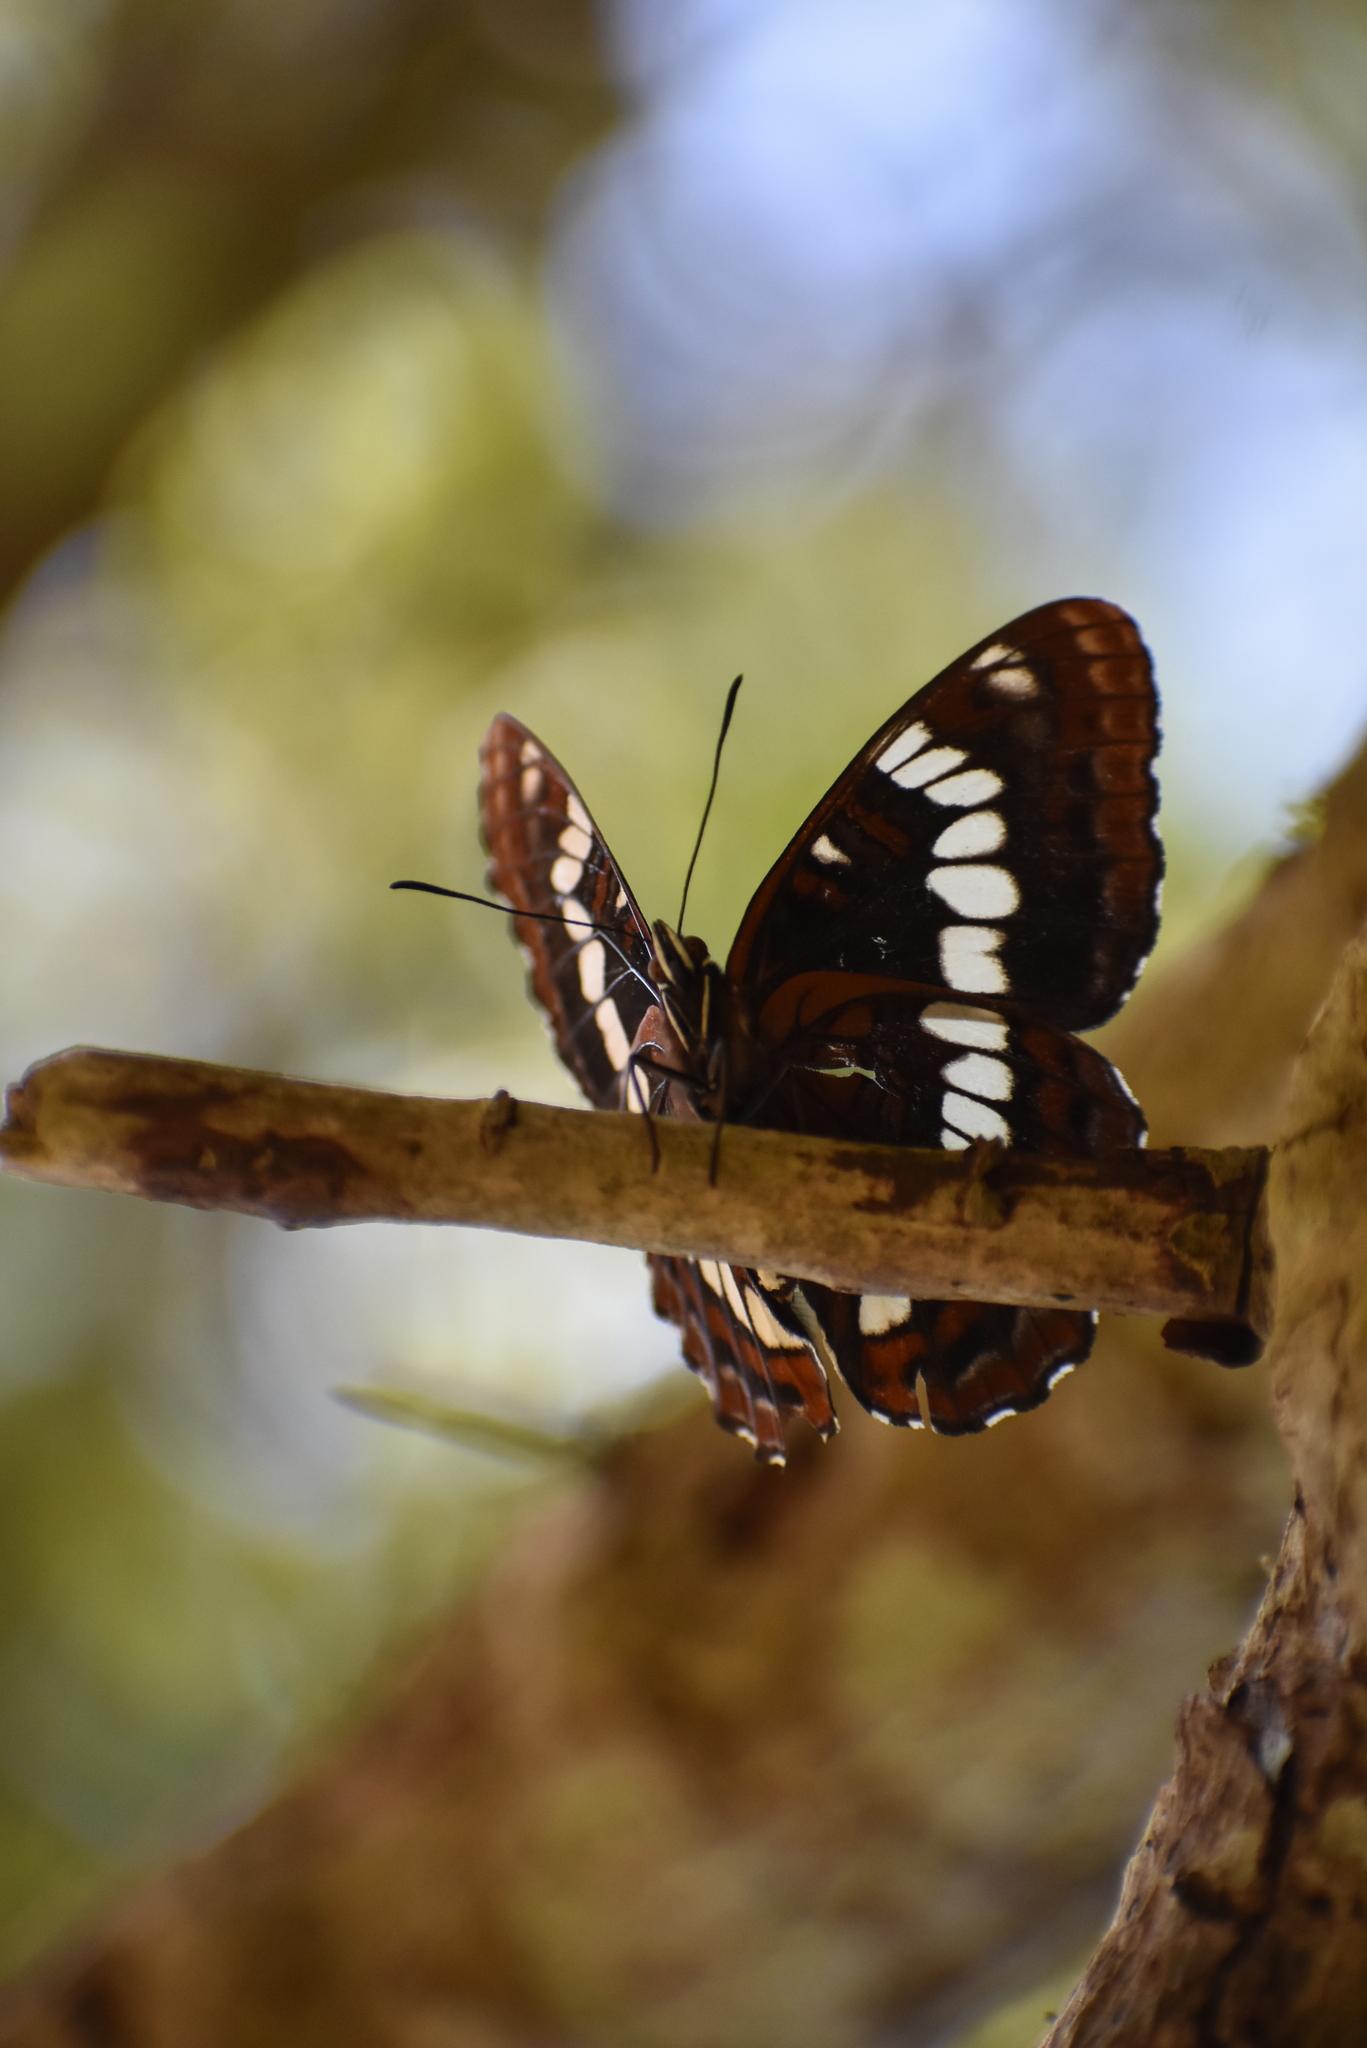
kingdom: Animalia
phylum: Arthropoda
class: Insecta
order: Lepidoptera
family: Nymphalidae
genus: Limenitis
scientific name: Limenitis lorquini
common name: Lorquin's admiral
